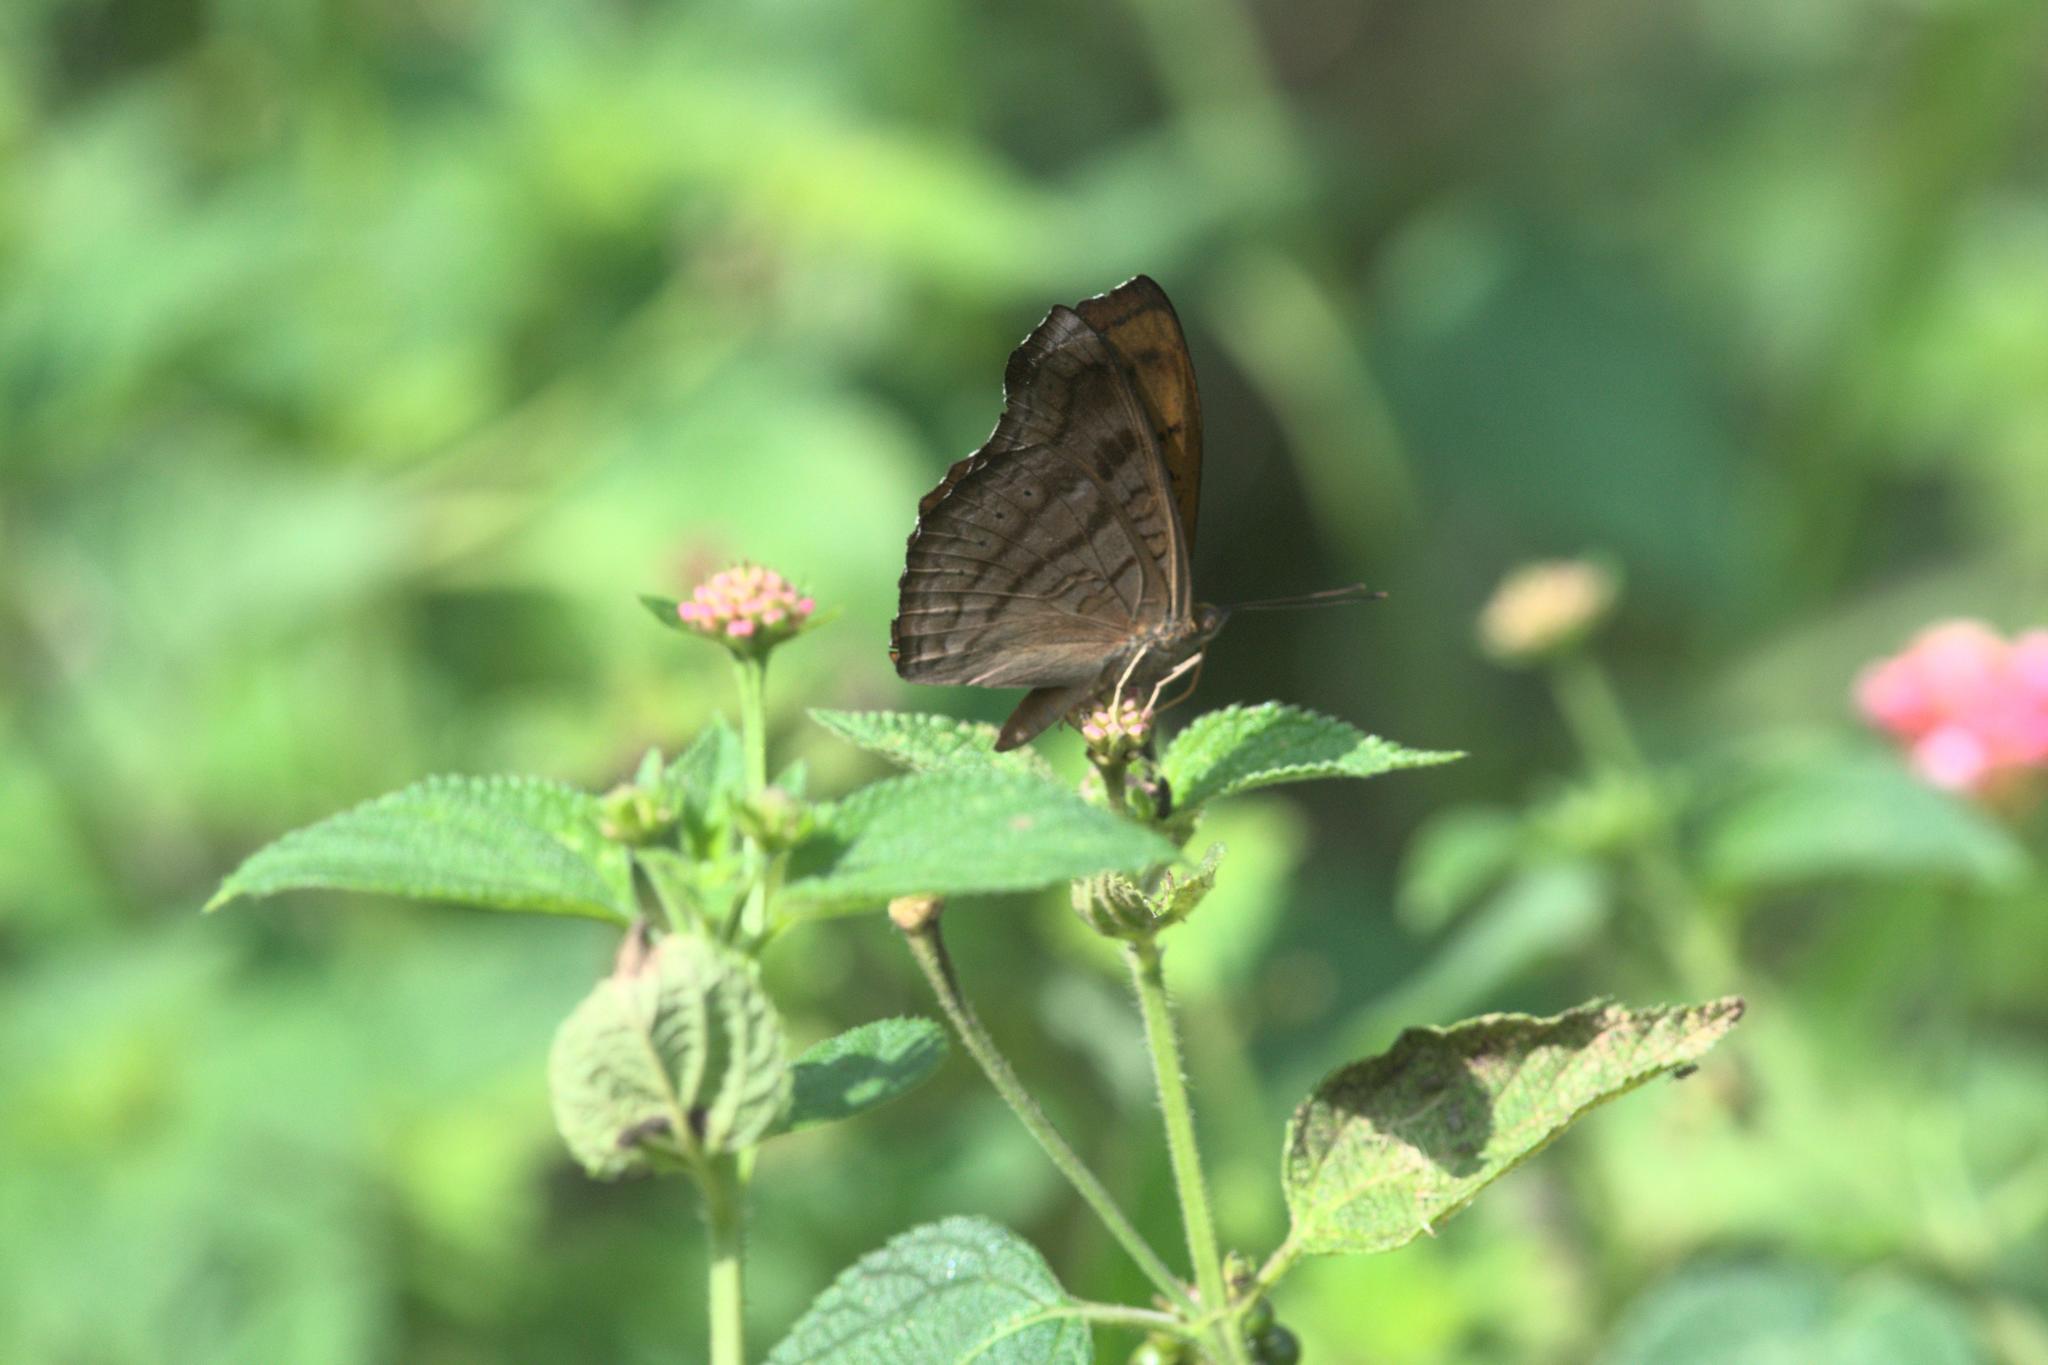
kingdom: Animalia
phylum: Arthropoda
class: Insecta
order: Lepidoptera
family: Nymphalidae
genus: Pseudergolis
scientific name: Pseudergolis wedah
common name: Tabby
